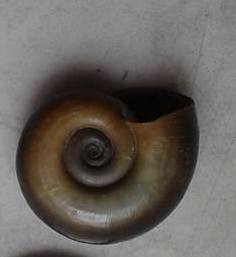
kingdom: Animalia
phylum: Mollusca
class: Gastropoda
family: Planorbidae
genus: Planorbarius
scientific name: Planorbarius corneus
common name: Great ramshorn
